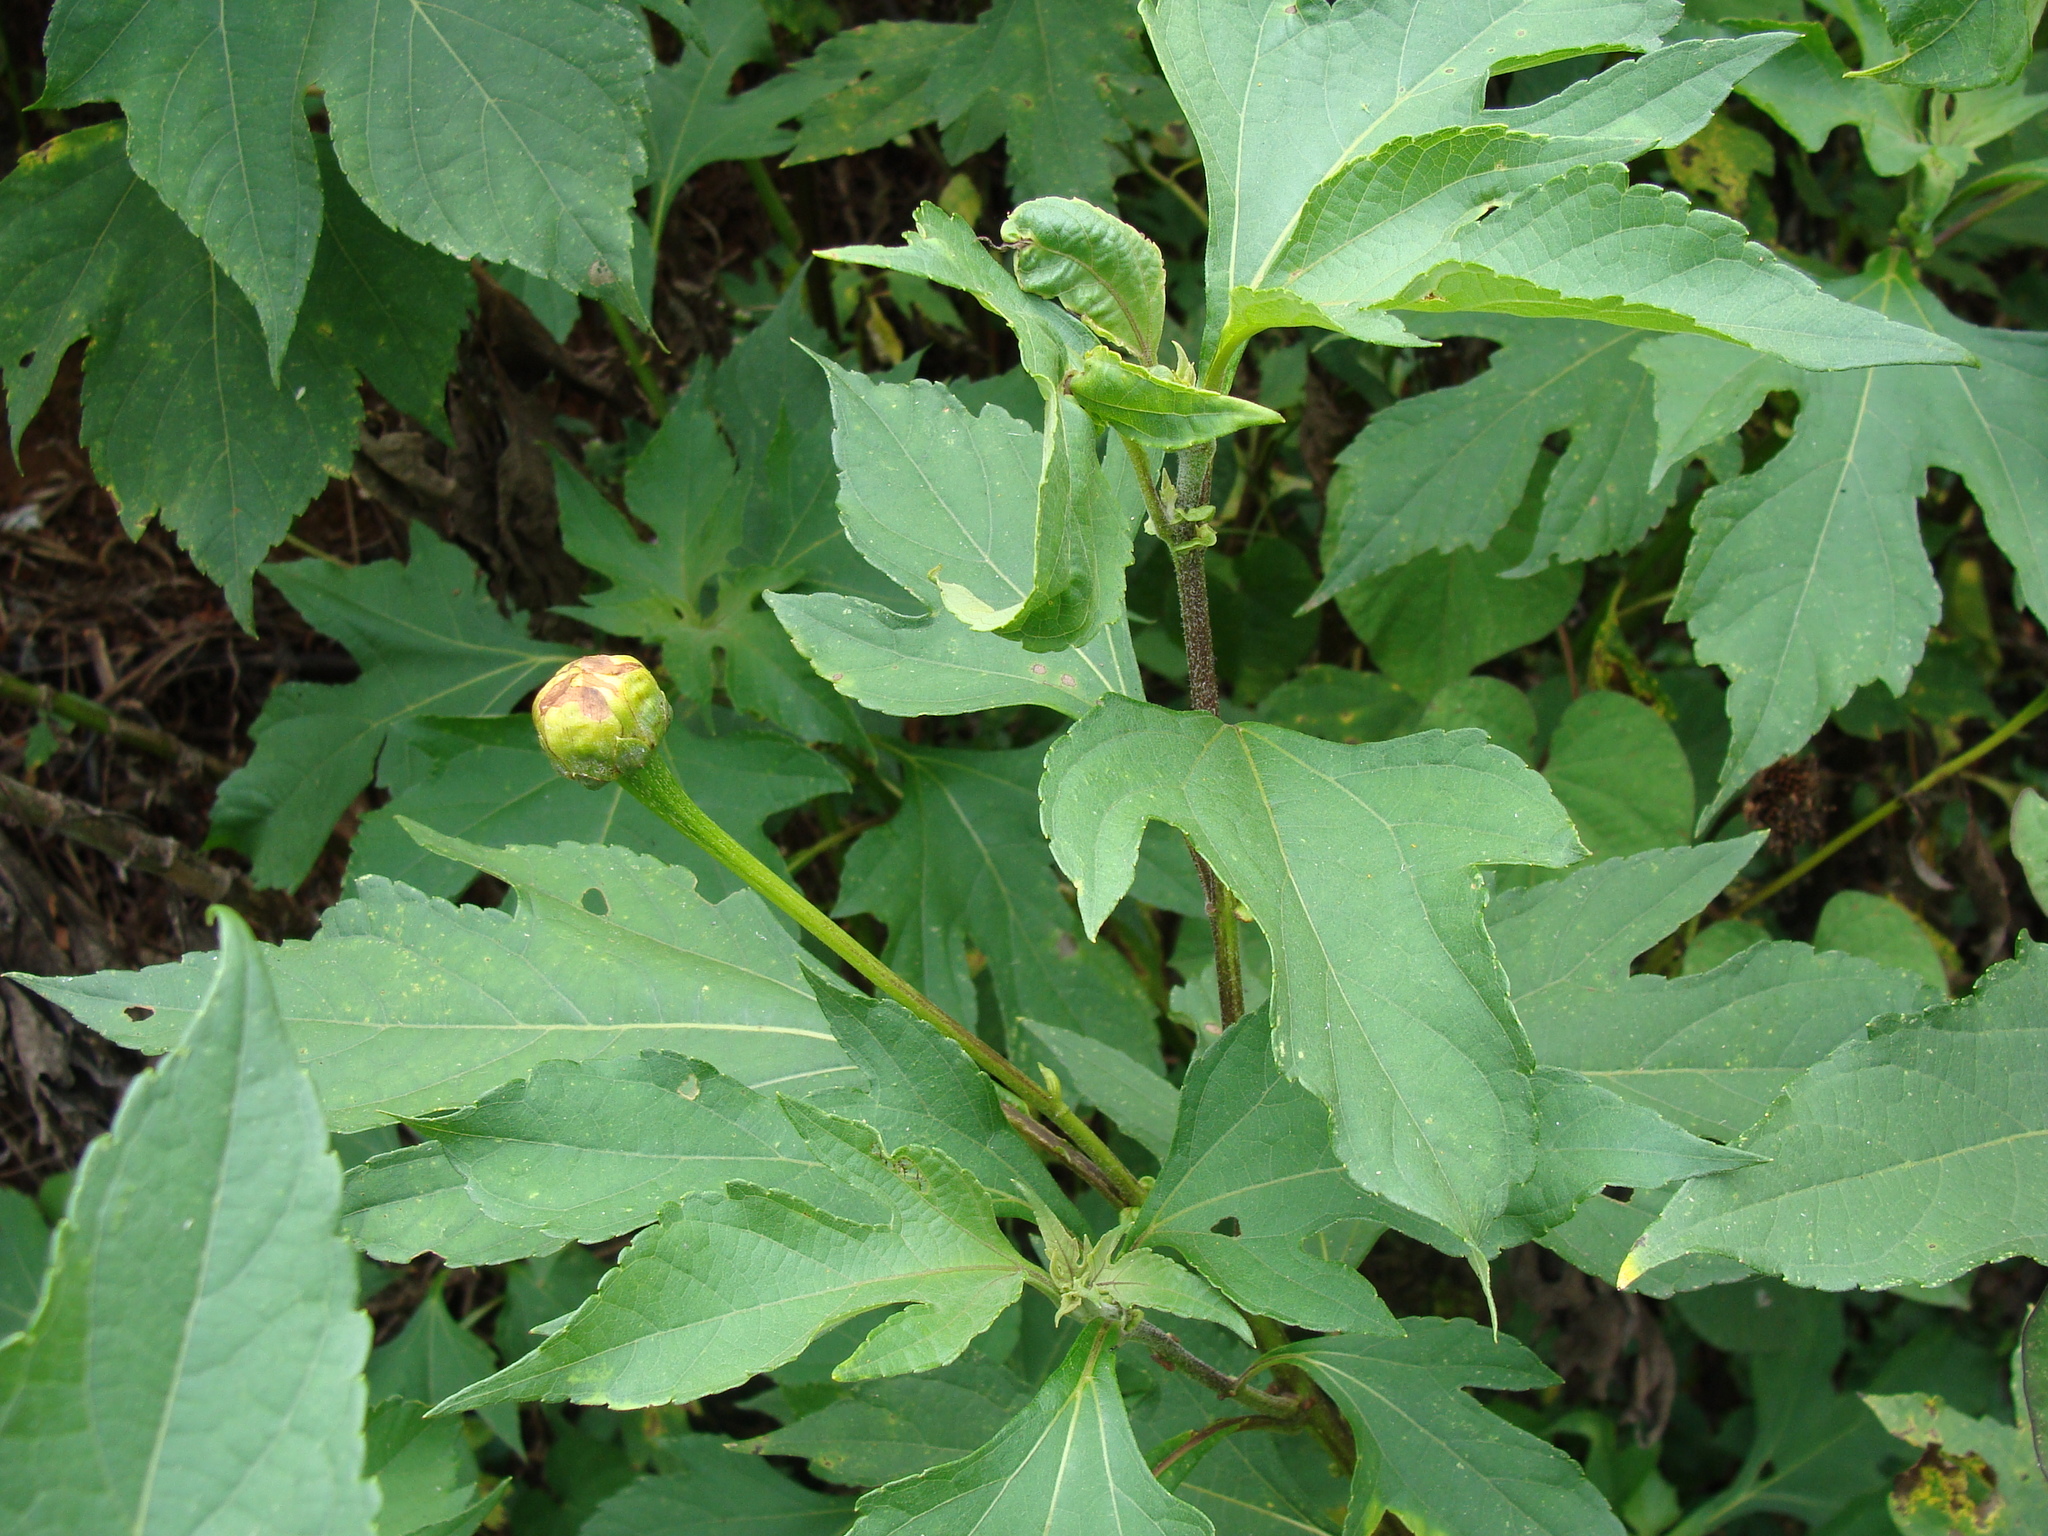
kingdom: Plantae
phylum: Tracheophyta
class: Magnoliopsida
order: Asterales
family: Asteraceae
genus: Tithonia
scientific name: Tithonia diversifolia
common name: Tree marigold
